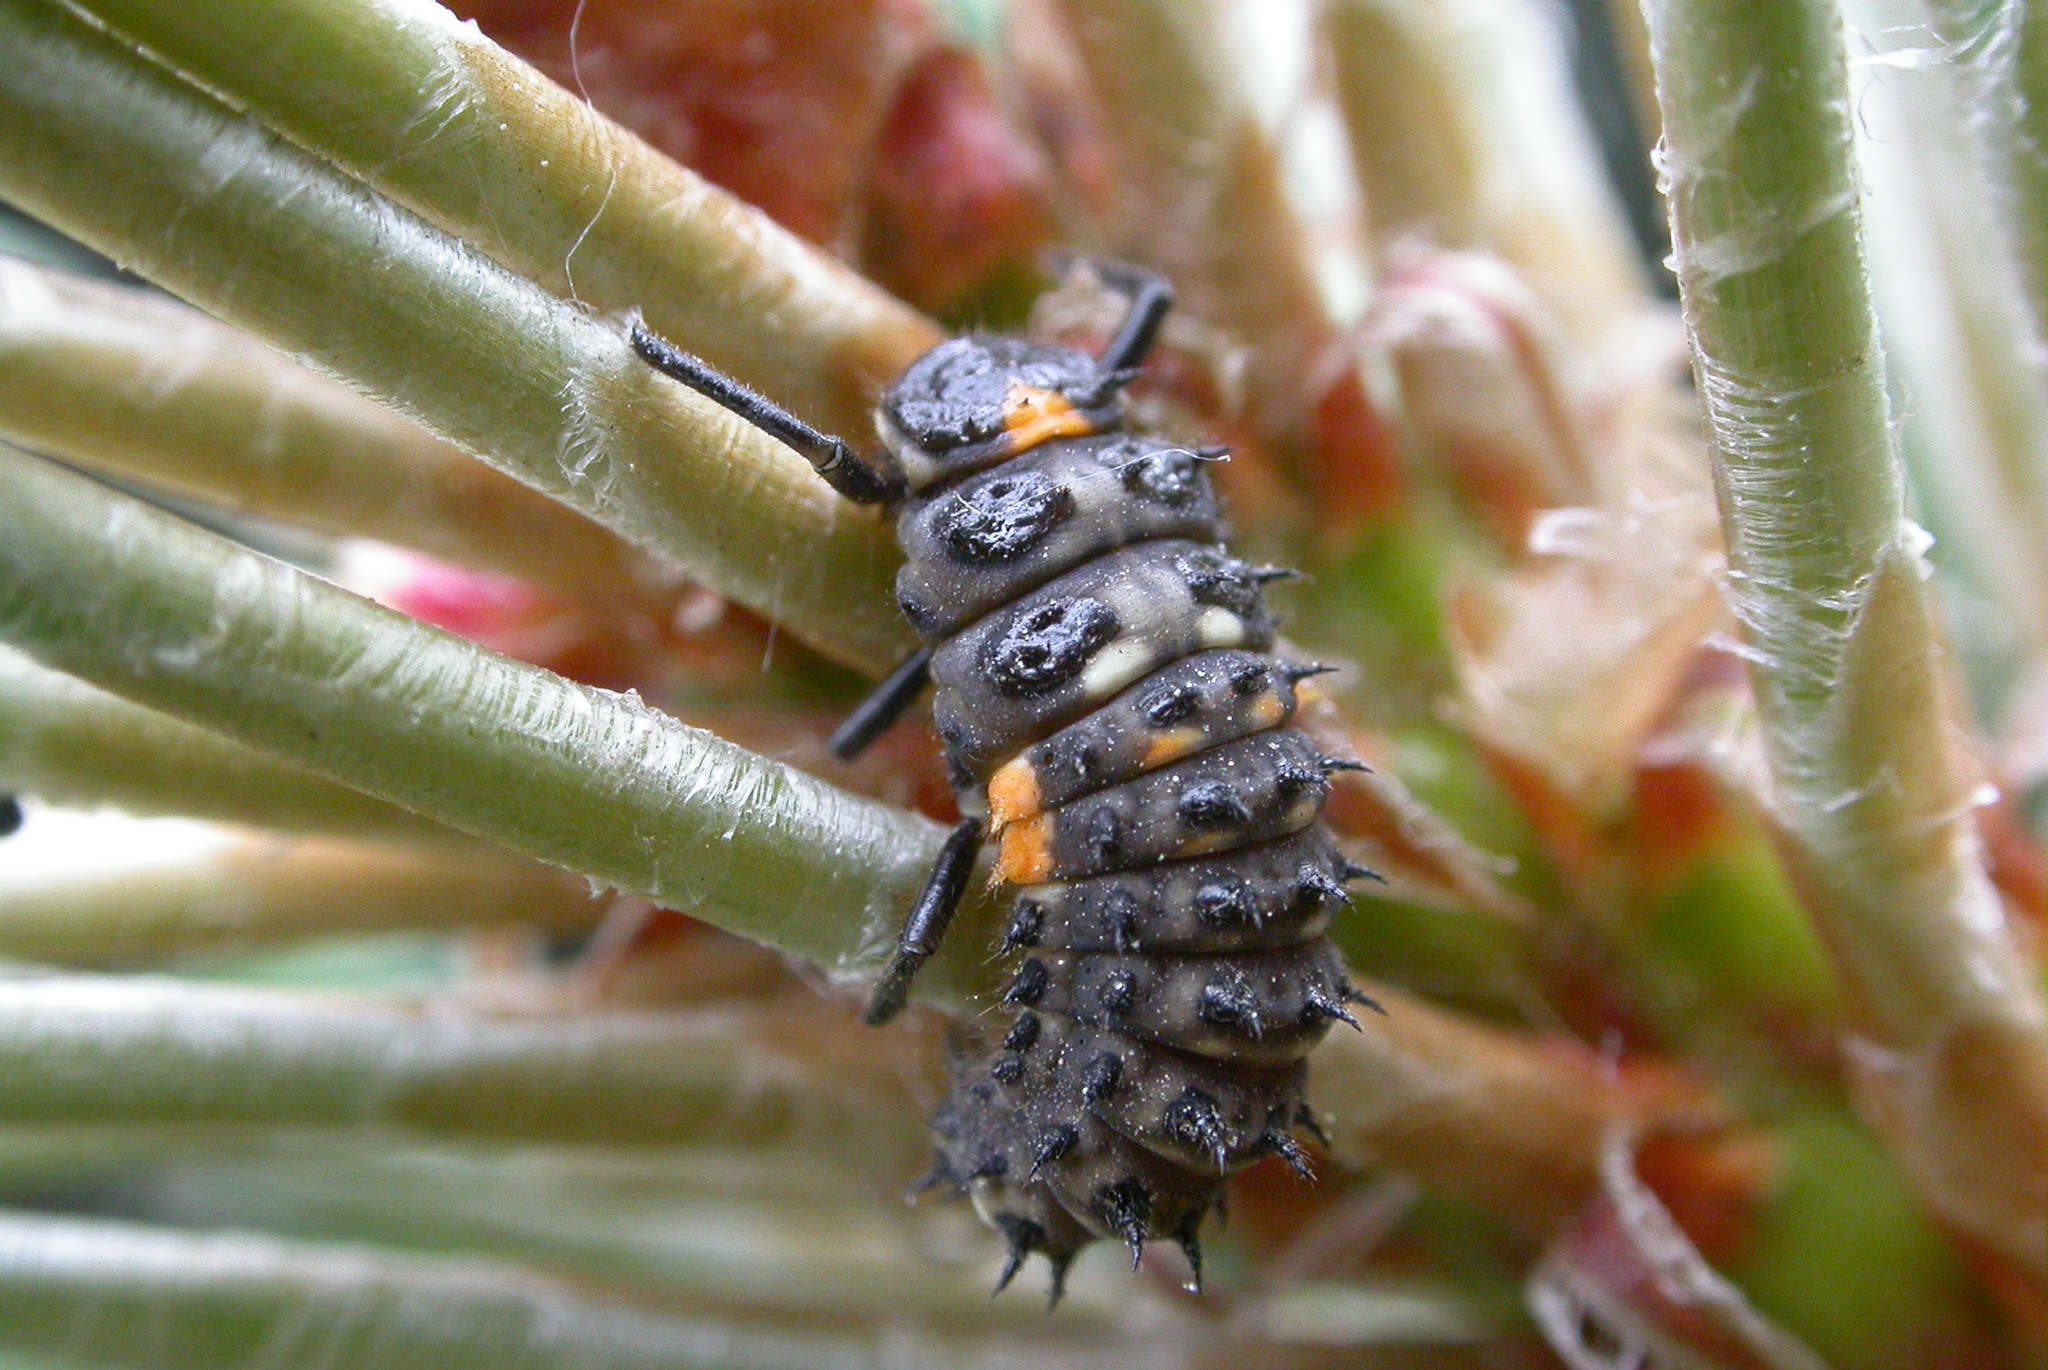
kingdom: Animalia
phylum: Arthropoda
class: Insecta
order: Coleoptera
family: Coccinellidae
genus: Anatis
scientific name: Anatis ocellata
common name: Eyed ladybird
